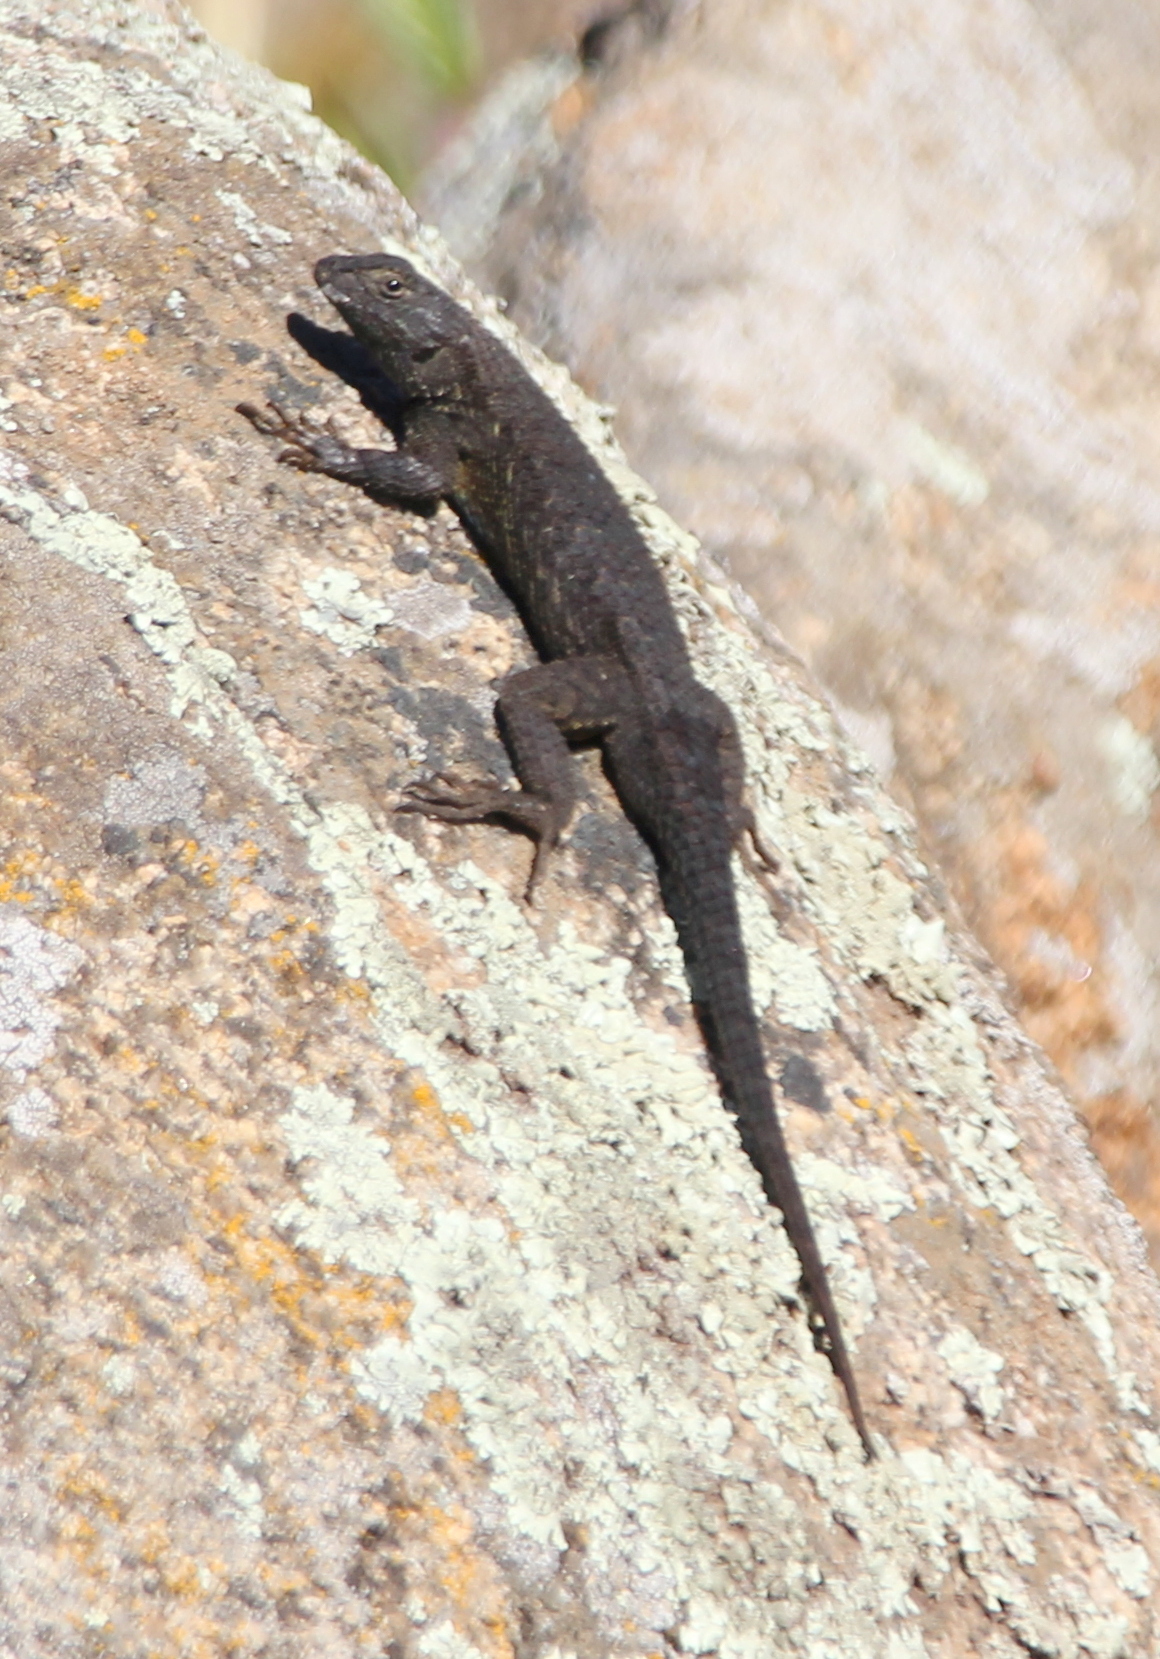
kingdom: Animalia
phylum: Chordata
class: Squamata
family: Phrynosomatidae
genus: Sceloporus
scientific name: Sceloporus occidentalis
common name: Western fence lizard
